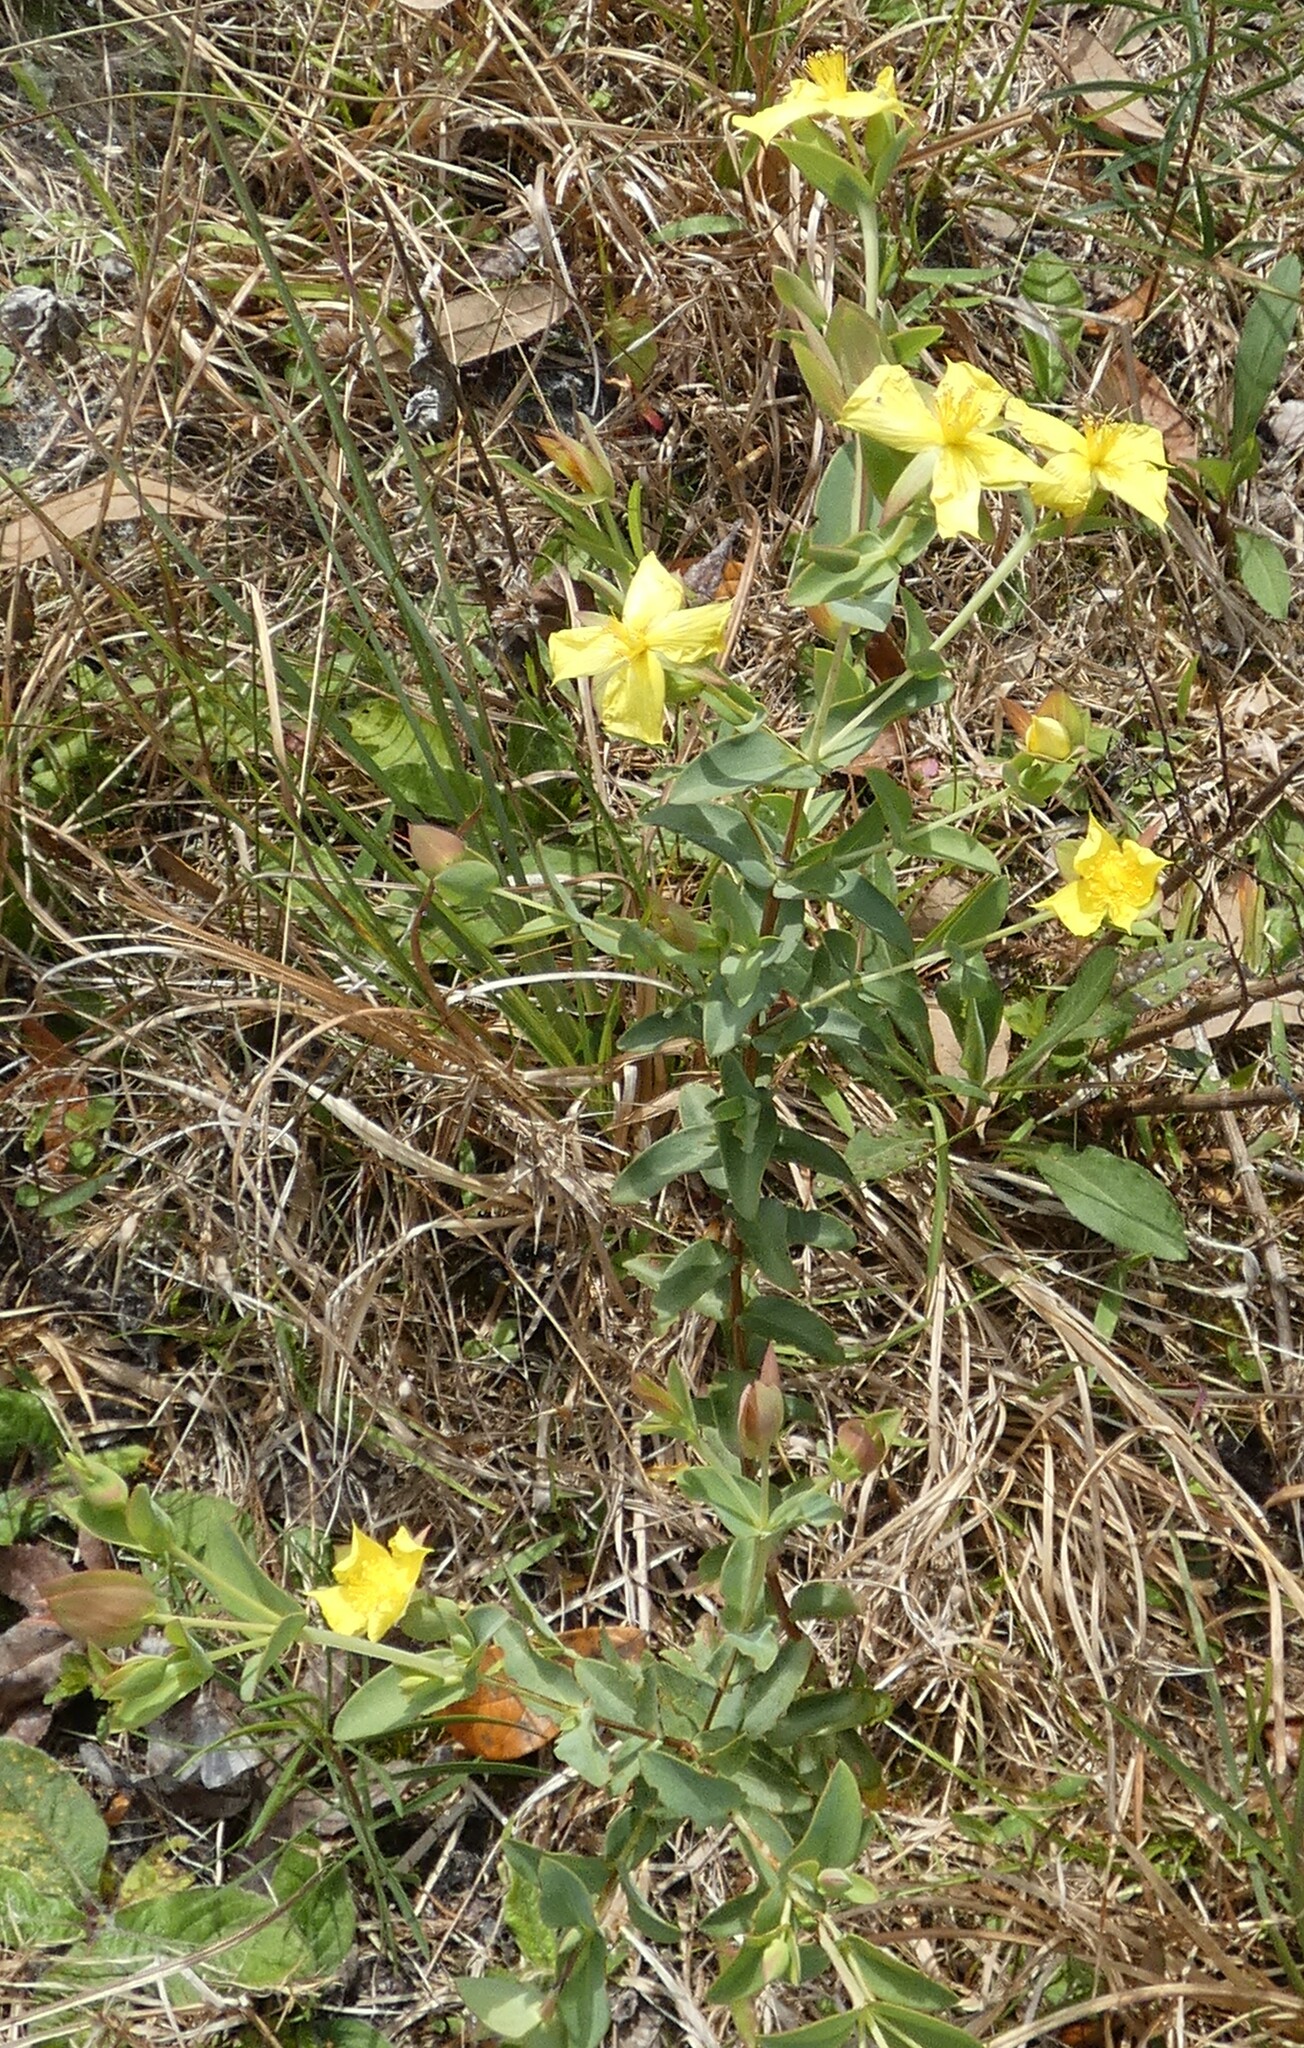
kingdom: Plantae
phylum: Tracheophyta
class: Magnoliopsida
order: Malpighiales
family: Hypericaceae
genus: Hypericum
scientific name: Hypericum tetrapetalum
